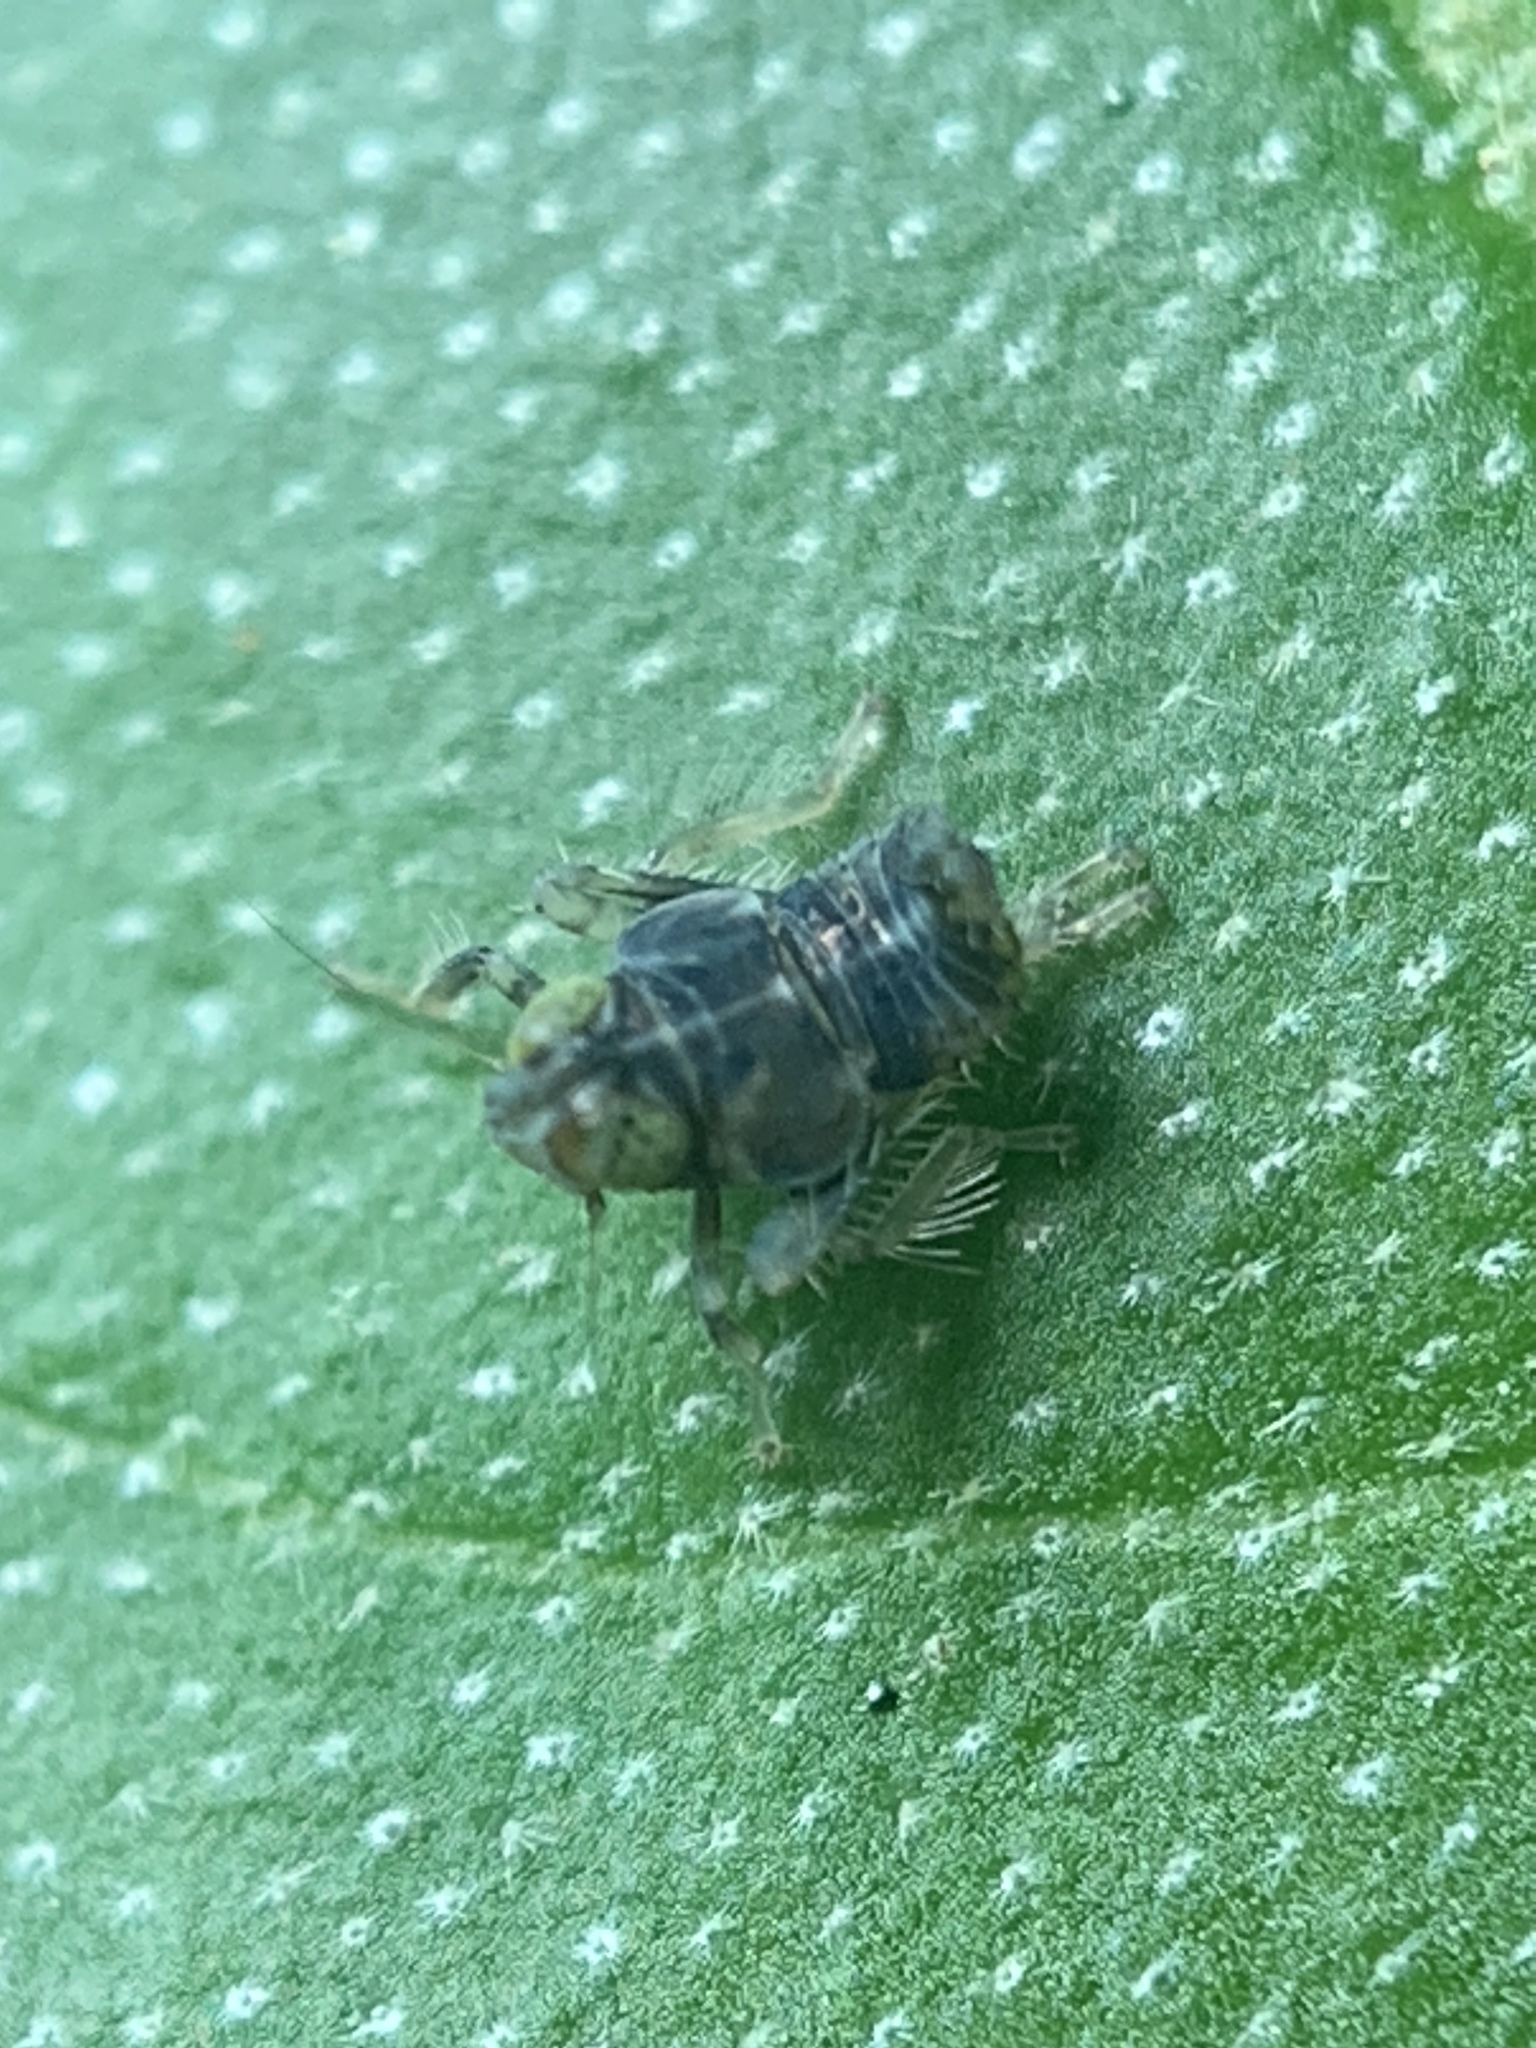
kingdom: Animalia
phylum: Arthropoda
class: Insecta
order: Hemiptera
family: Cicadellidae
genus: Jikradia
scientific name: Jikradia olitoria
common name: Coppery leafhopper
